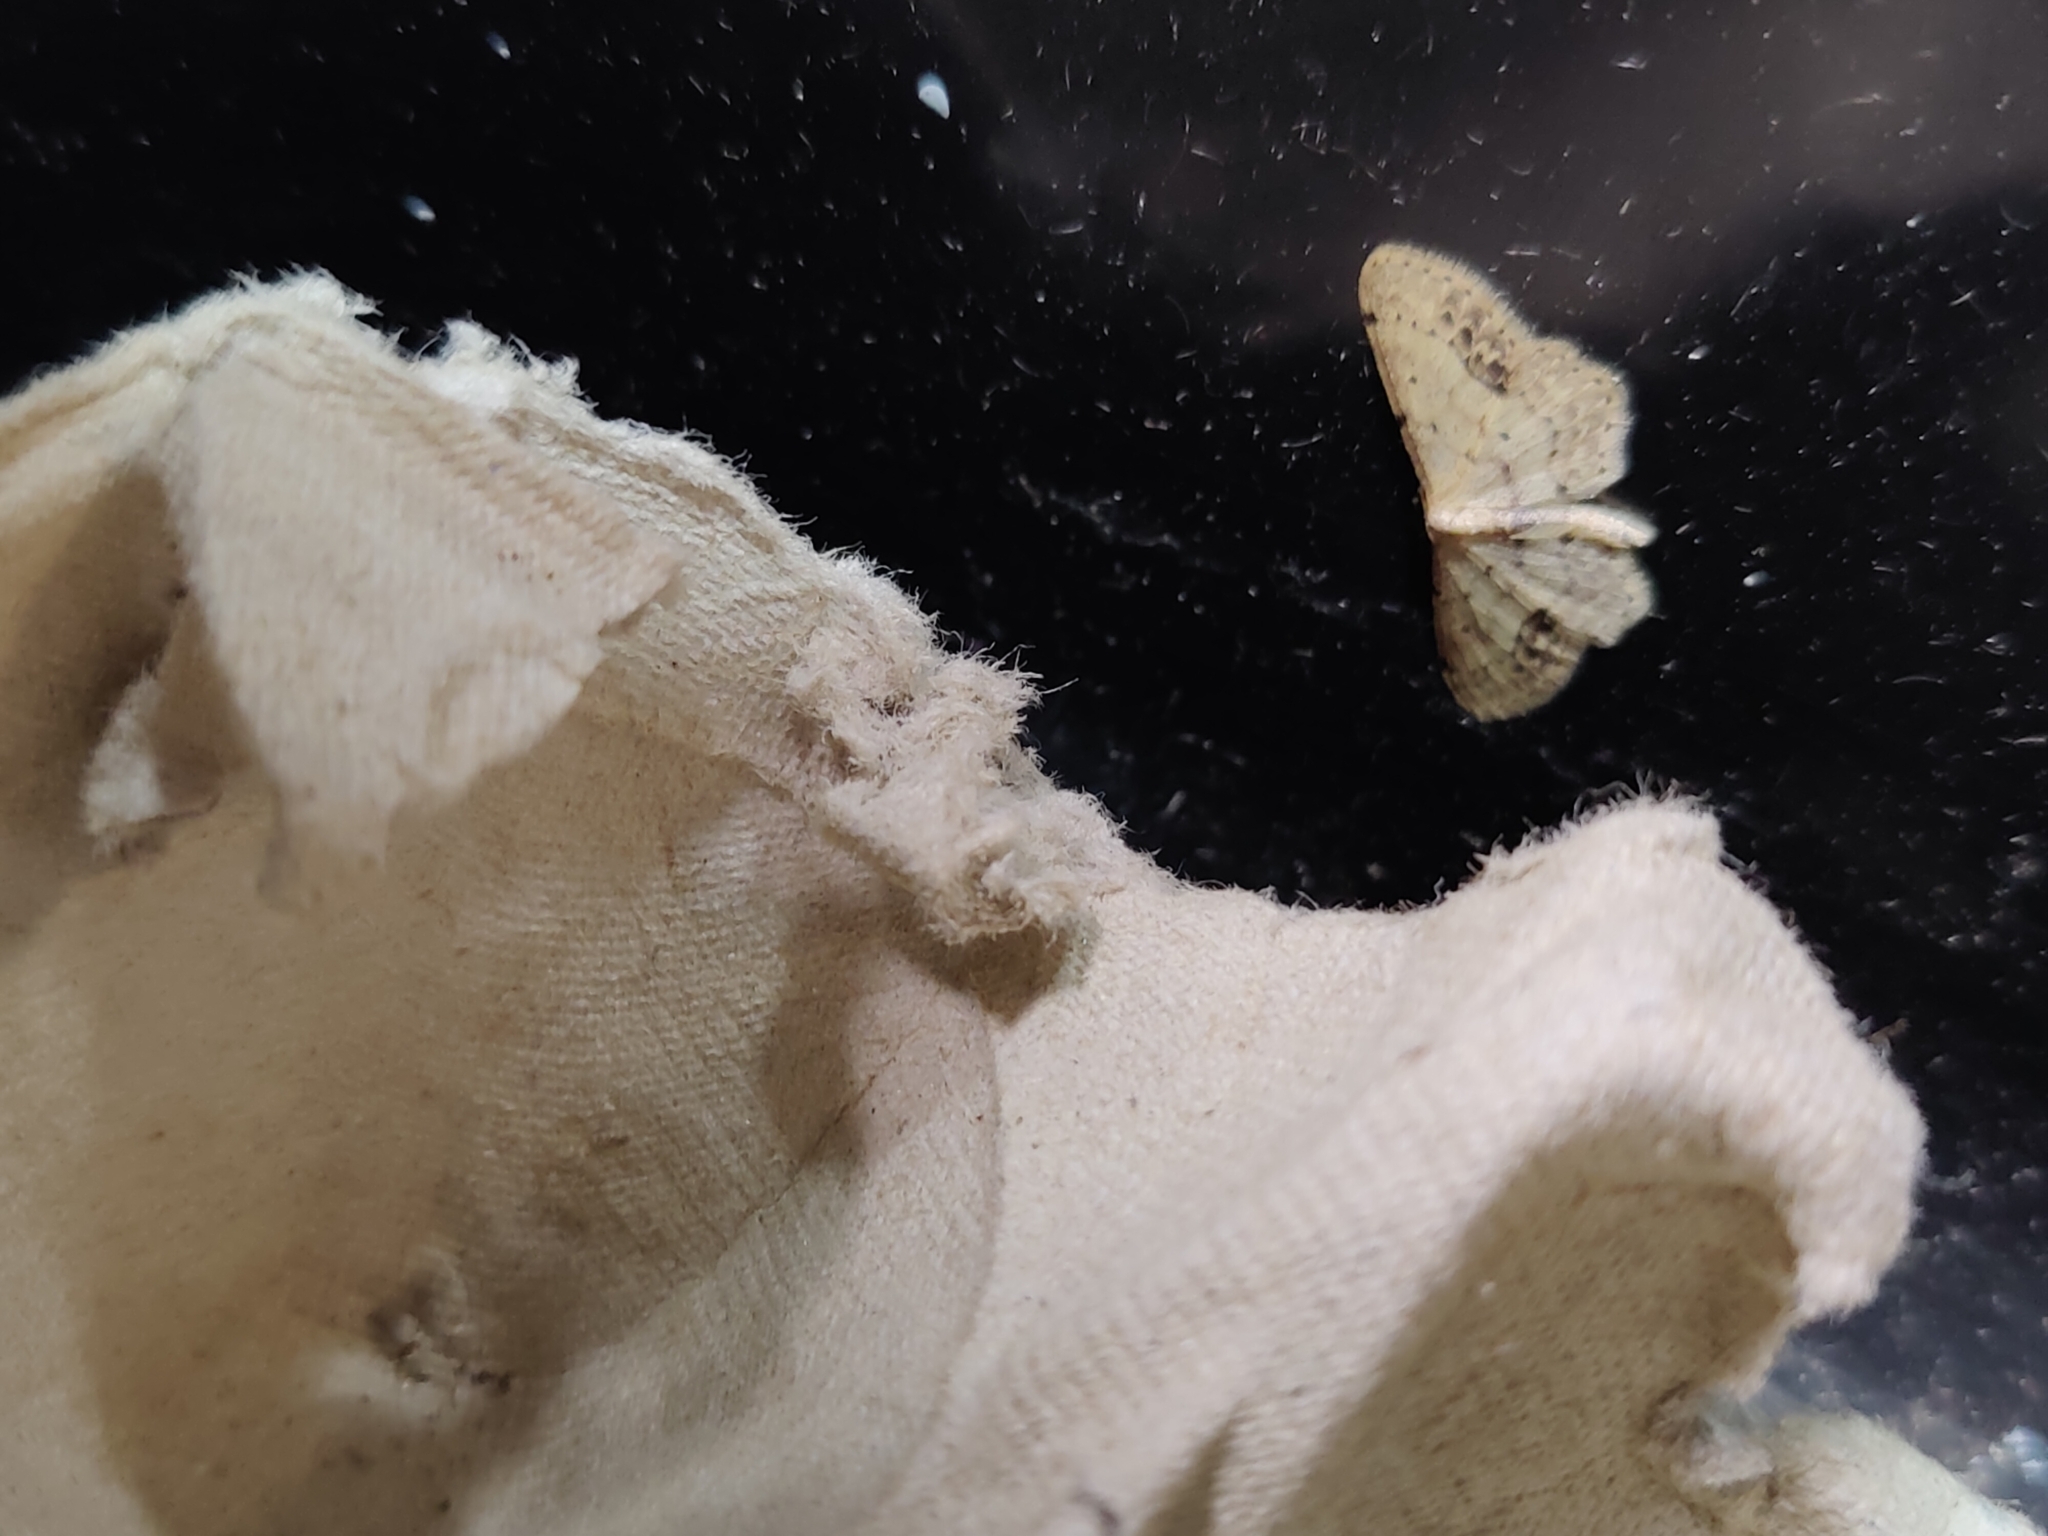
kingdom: Animalia
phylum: Arthropoda
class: Insecta
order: Lepidoptera
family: Geometridae
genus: Idaea
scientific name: Idaea dimidiata
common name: Single-dotted wave
